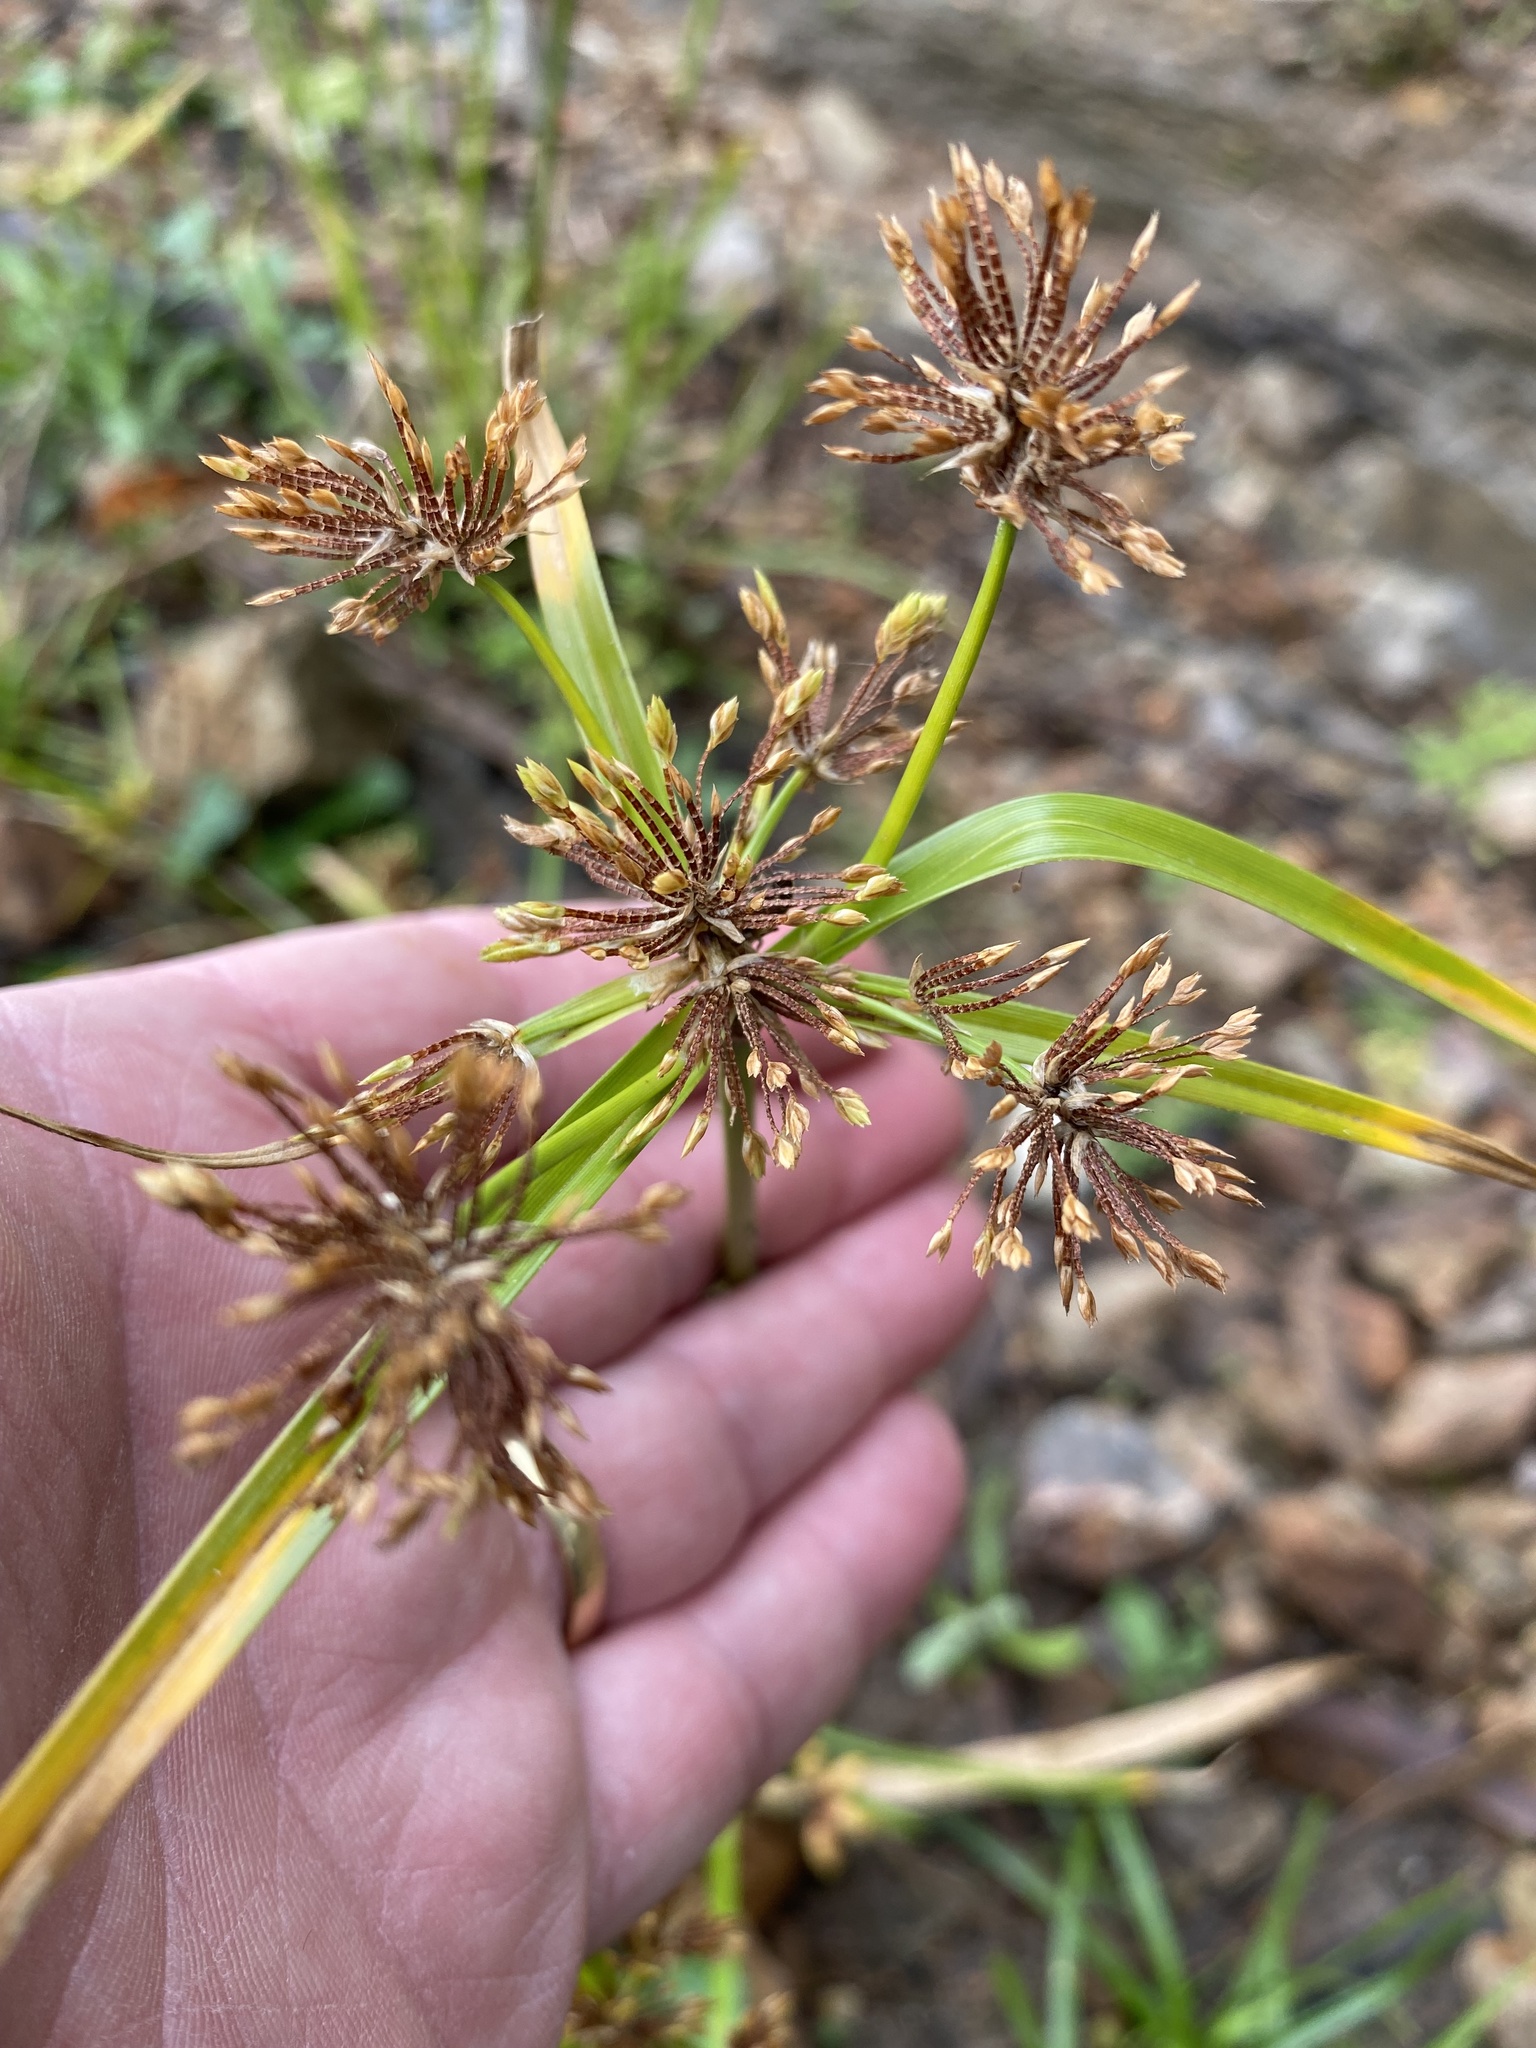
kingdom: Plantae
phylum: Tracheophyta
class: Liliopsida
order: Poales
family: Cyperaceae
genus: Cyperus
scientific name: Cyperus eragrostis
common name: Tall flatsedge
